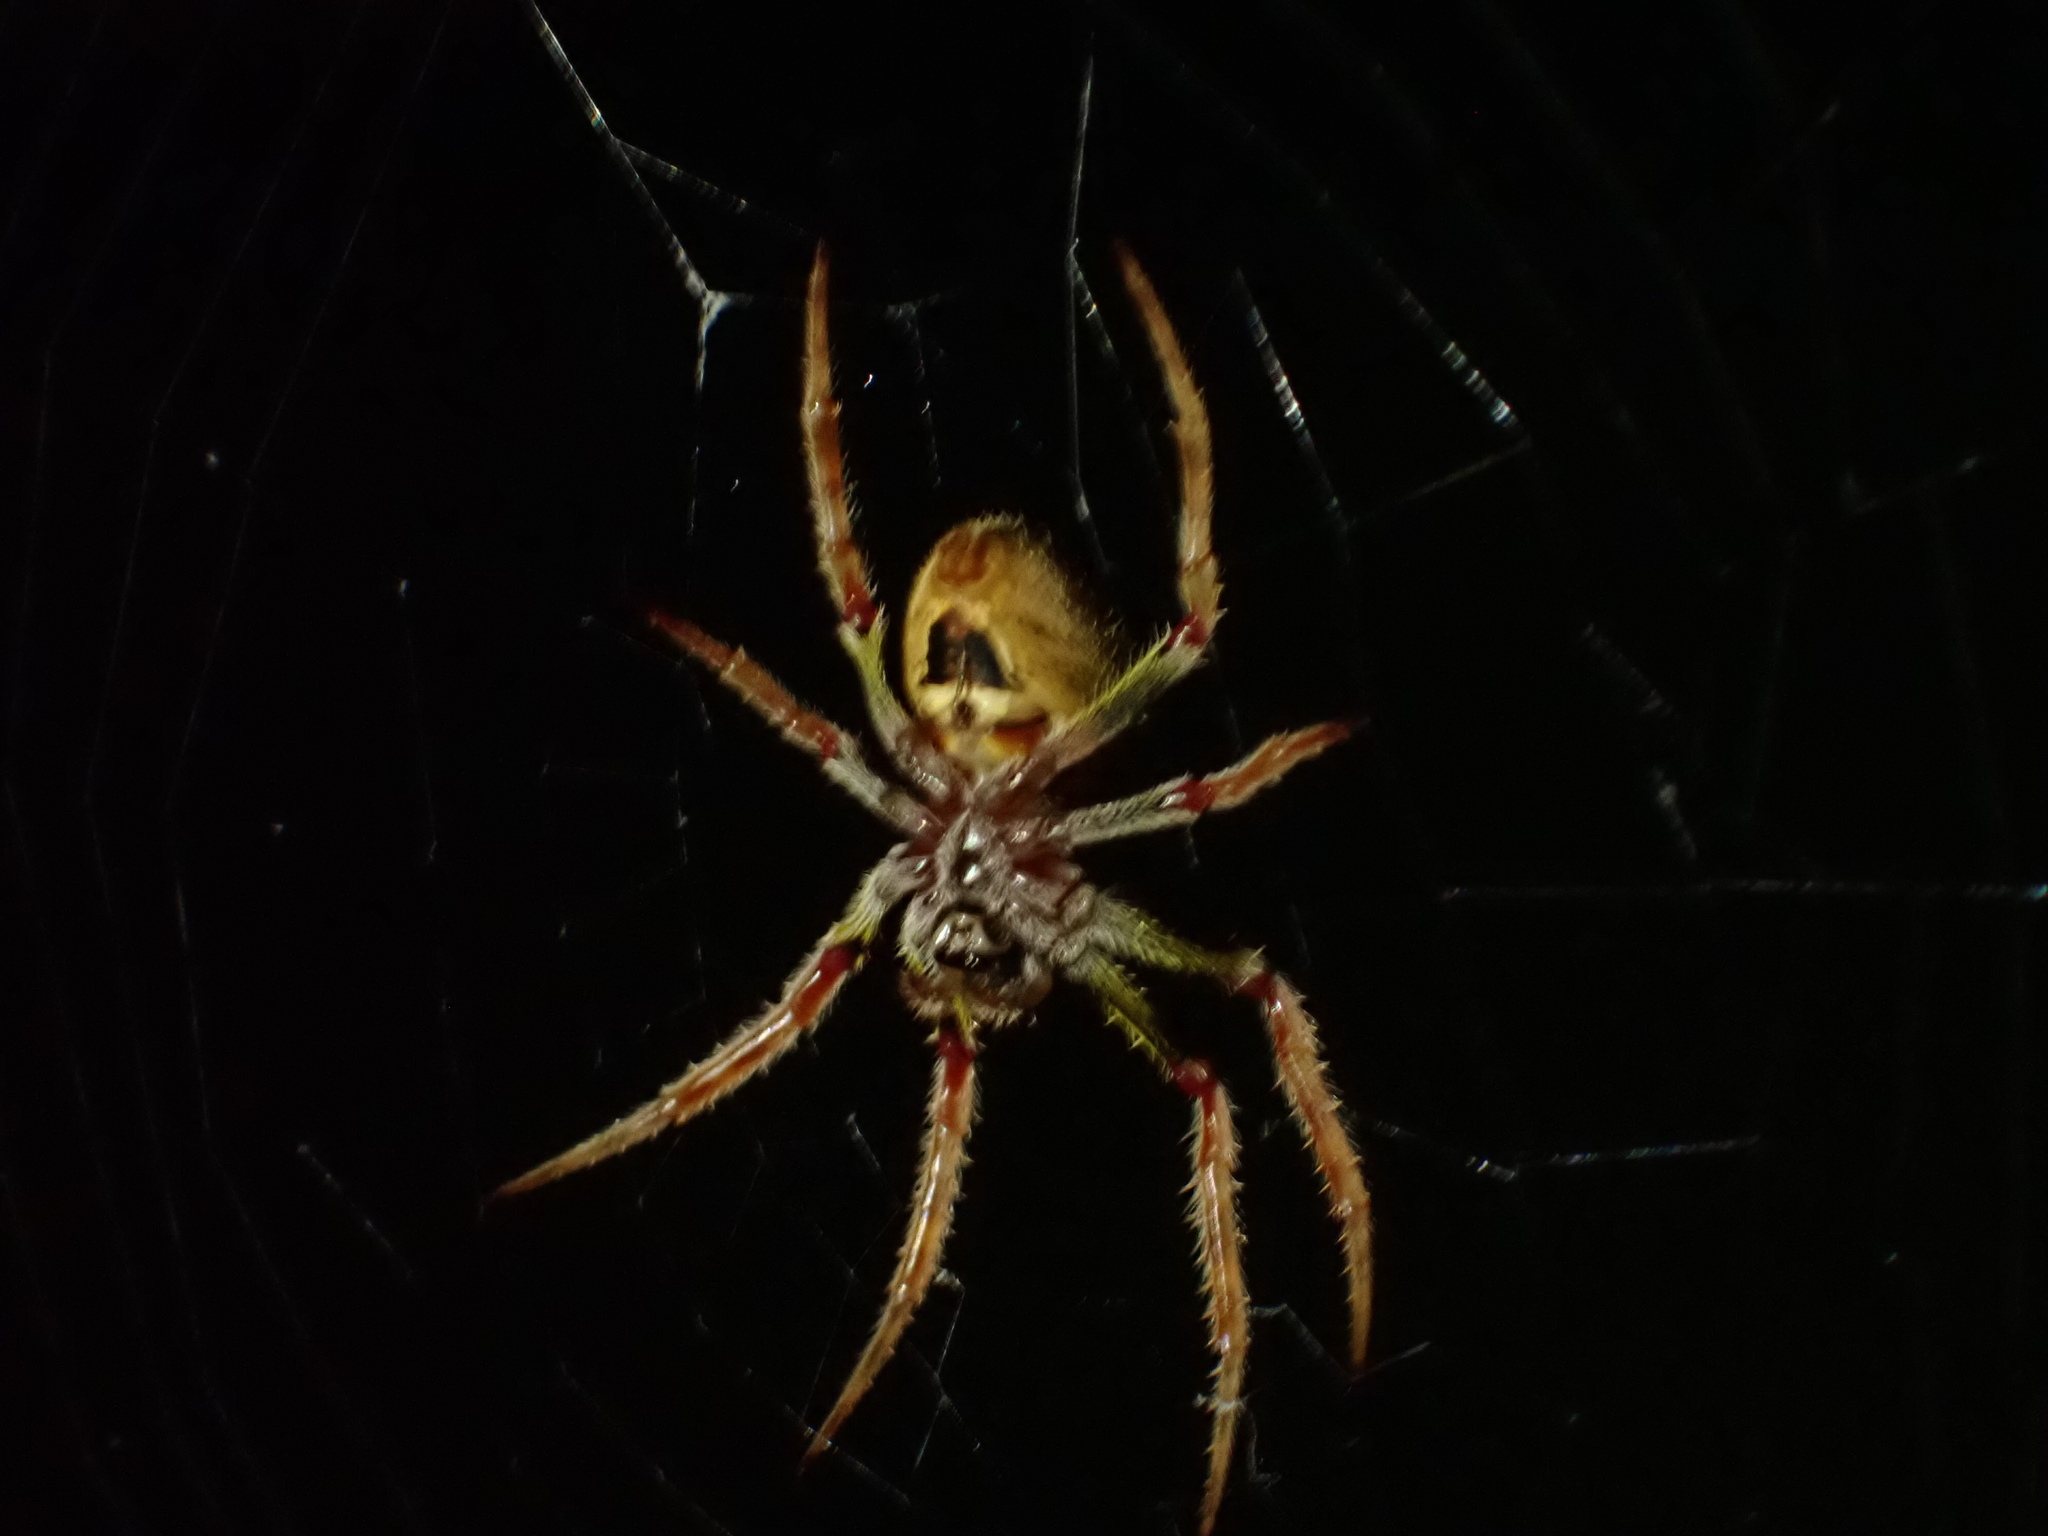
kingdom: Animalia
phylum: Arthropoda
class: Arachnida
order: Araneae
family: Araneidae
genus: Eriophora
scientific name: Eriophora ravilla
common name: Orb weavers
